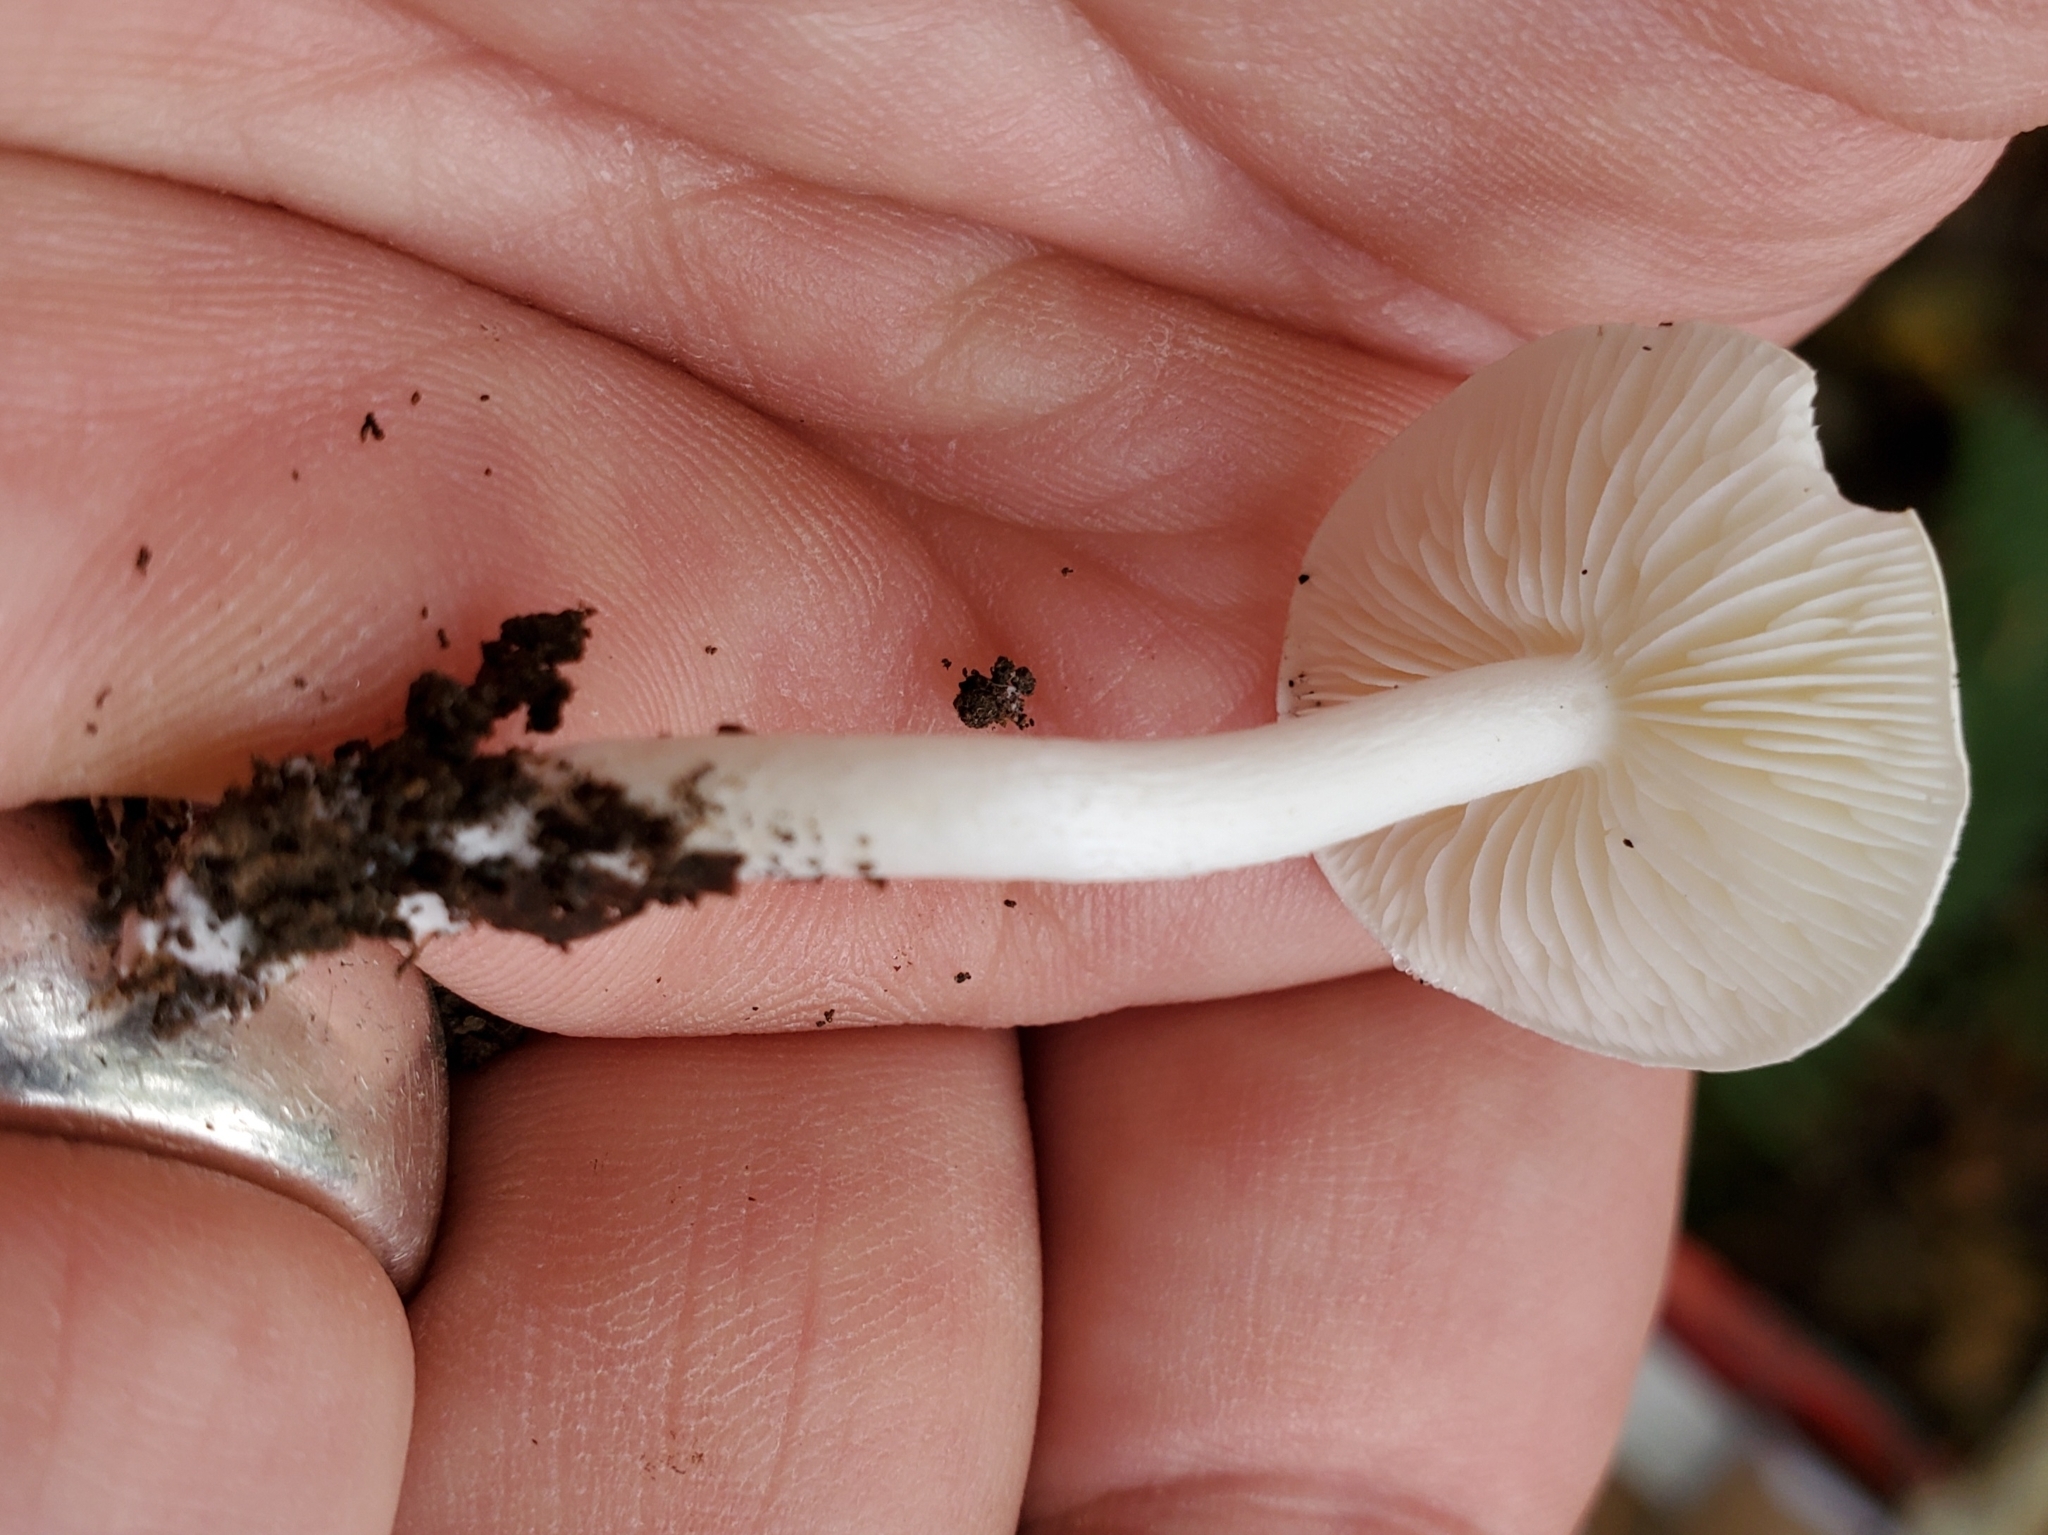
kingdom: Fungi
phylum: Basidiomycota
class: Agaricomycetes
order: Agaricales
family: Tricholomataceae
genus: Albomagister
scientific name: Albomagister subaustralis
